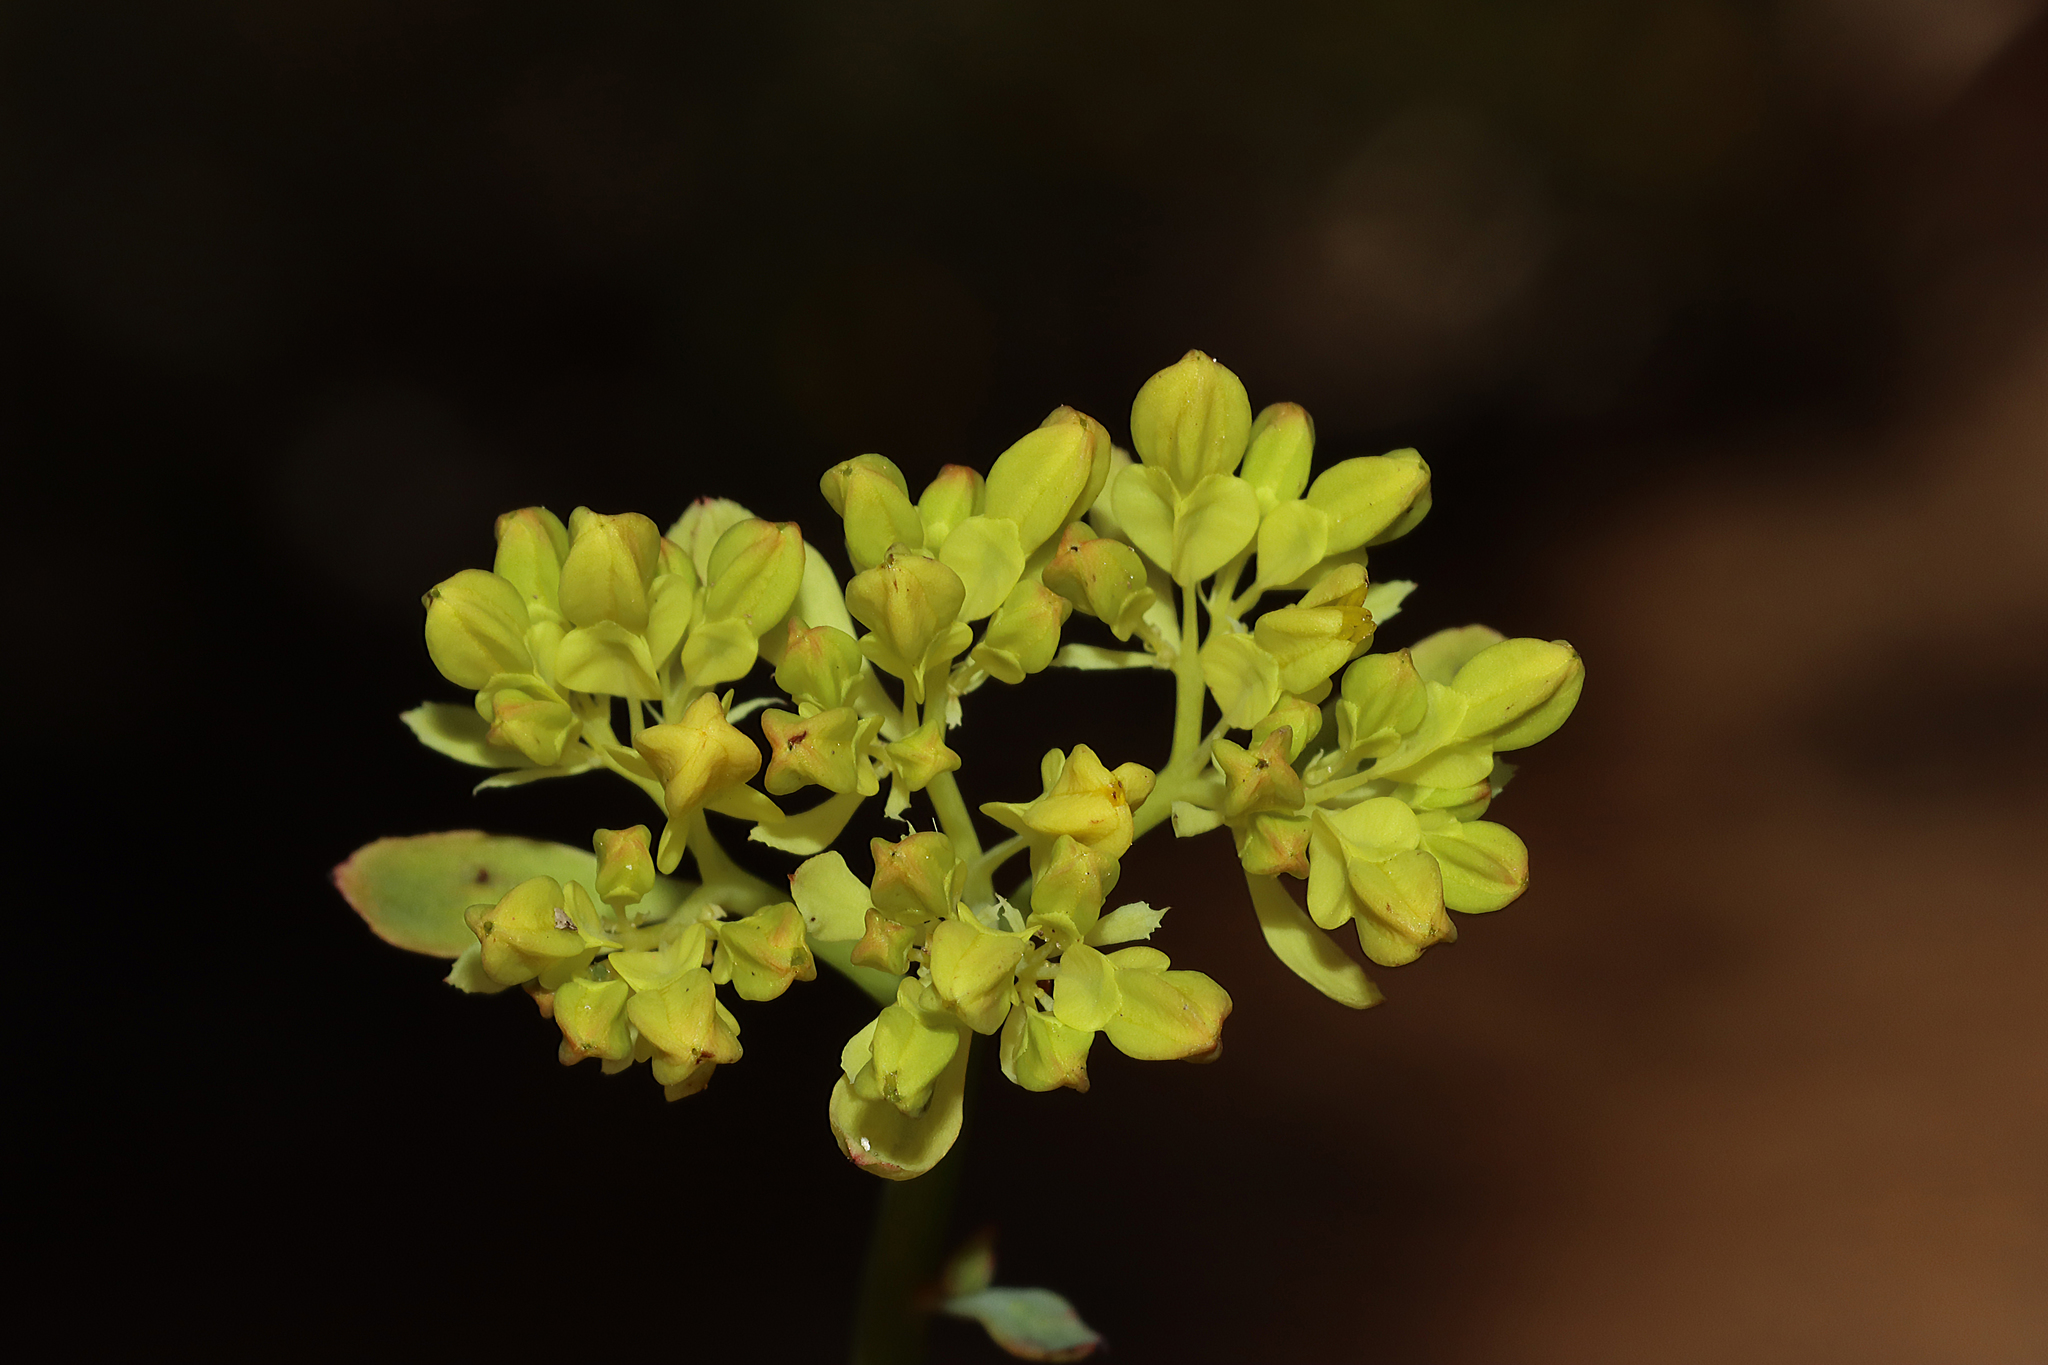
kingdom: Plantae
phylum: Tracheophyta
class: Magnoliopsida
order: Saxifragales
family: Haloragaceae
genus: Glischrocaryon
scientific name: Glischrocaryon aureum
